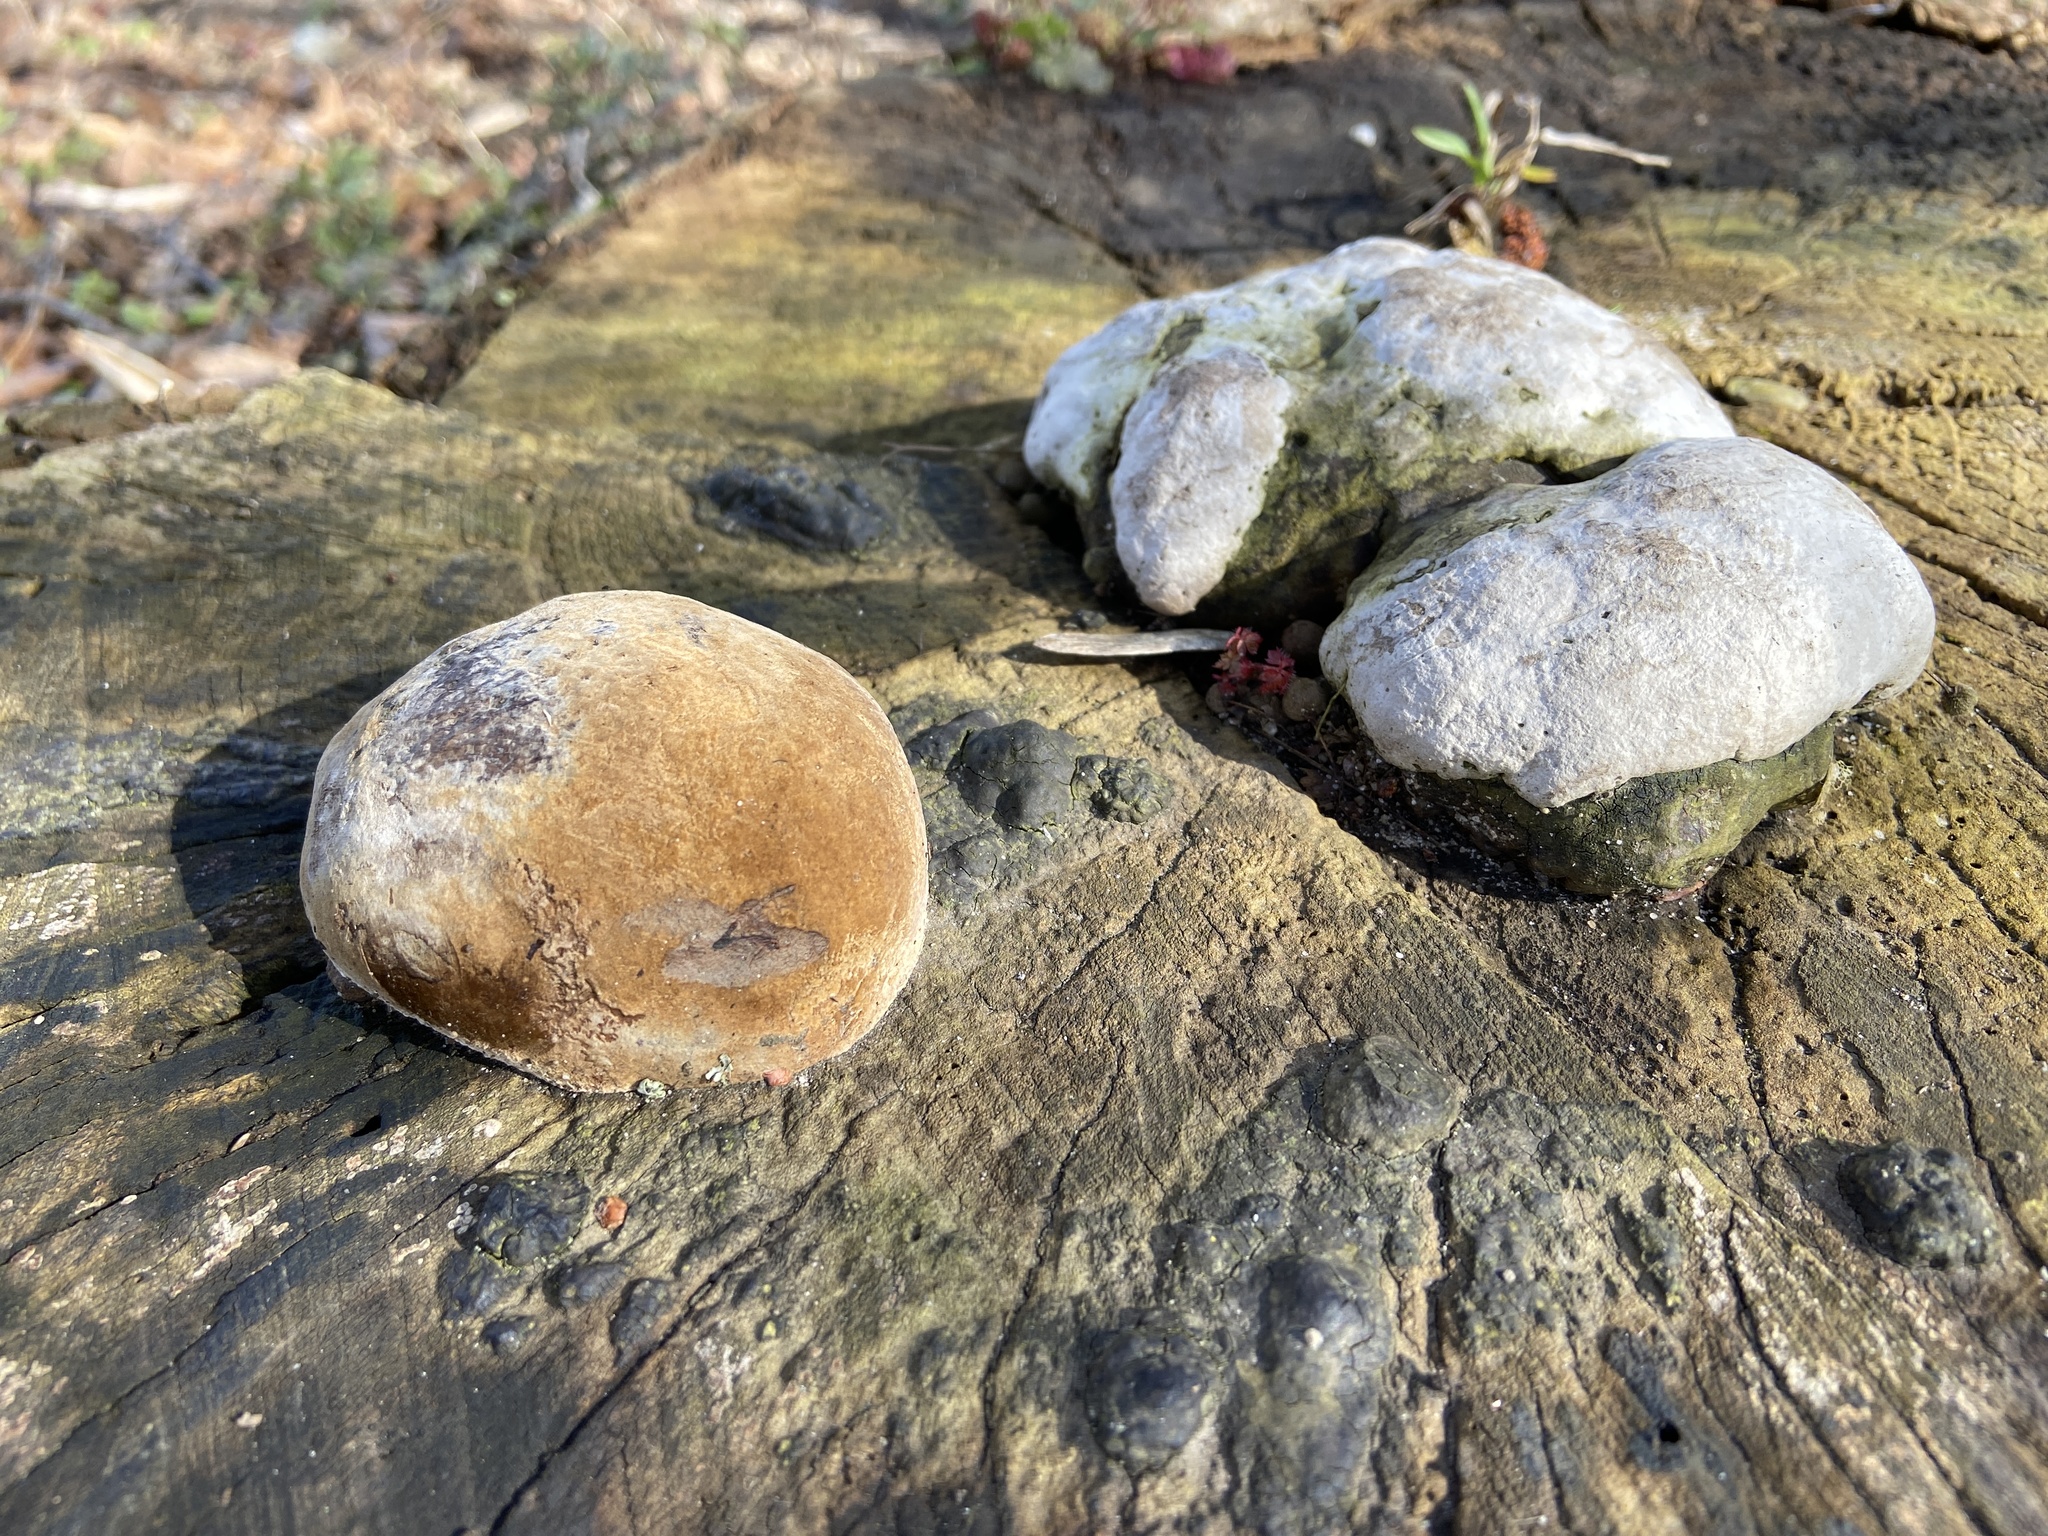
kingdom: Fungi
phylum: Basidiomycota
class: Agaricomycetes
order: Hymenochaetales
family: Hymenochaetaceae
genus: Fomitiporia
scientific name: Fomitiporia robusta
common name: Robust bracket
